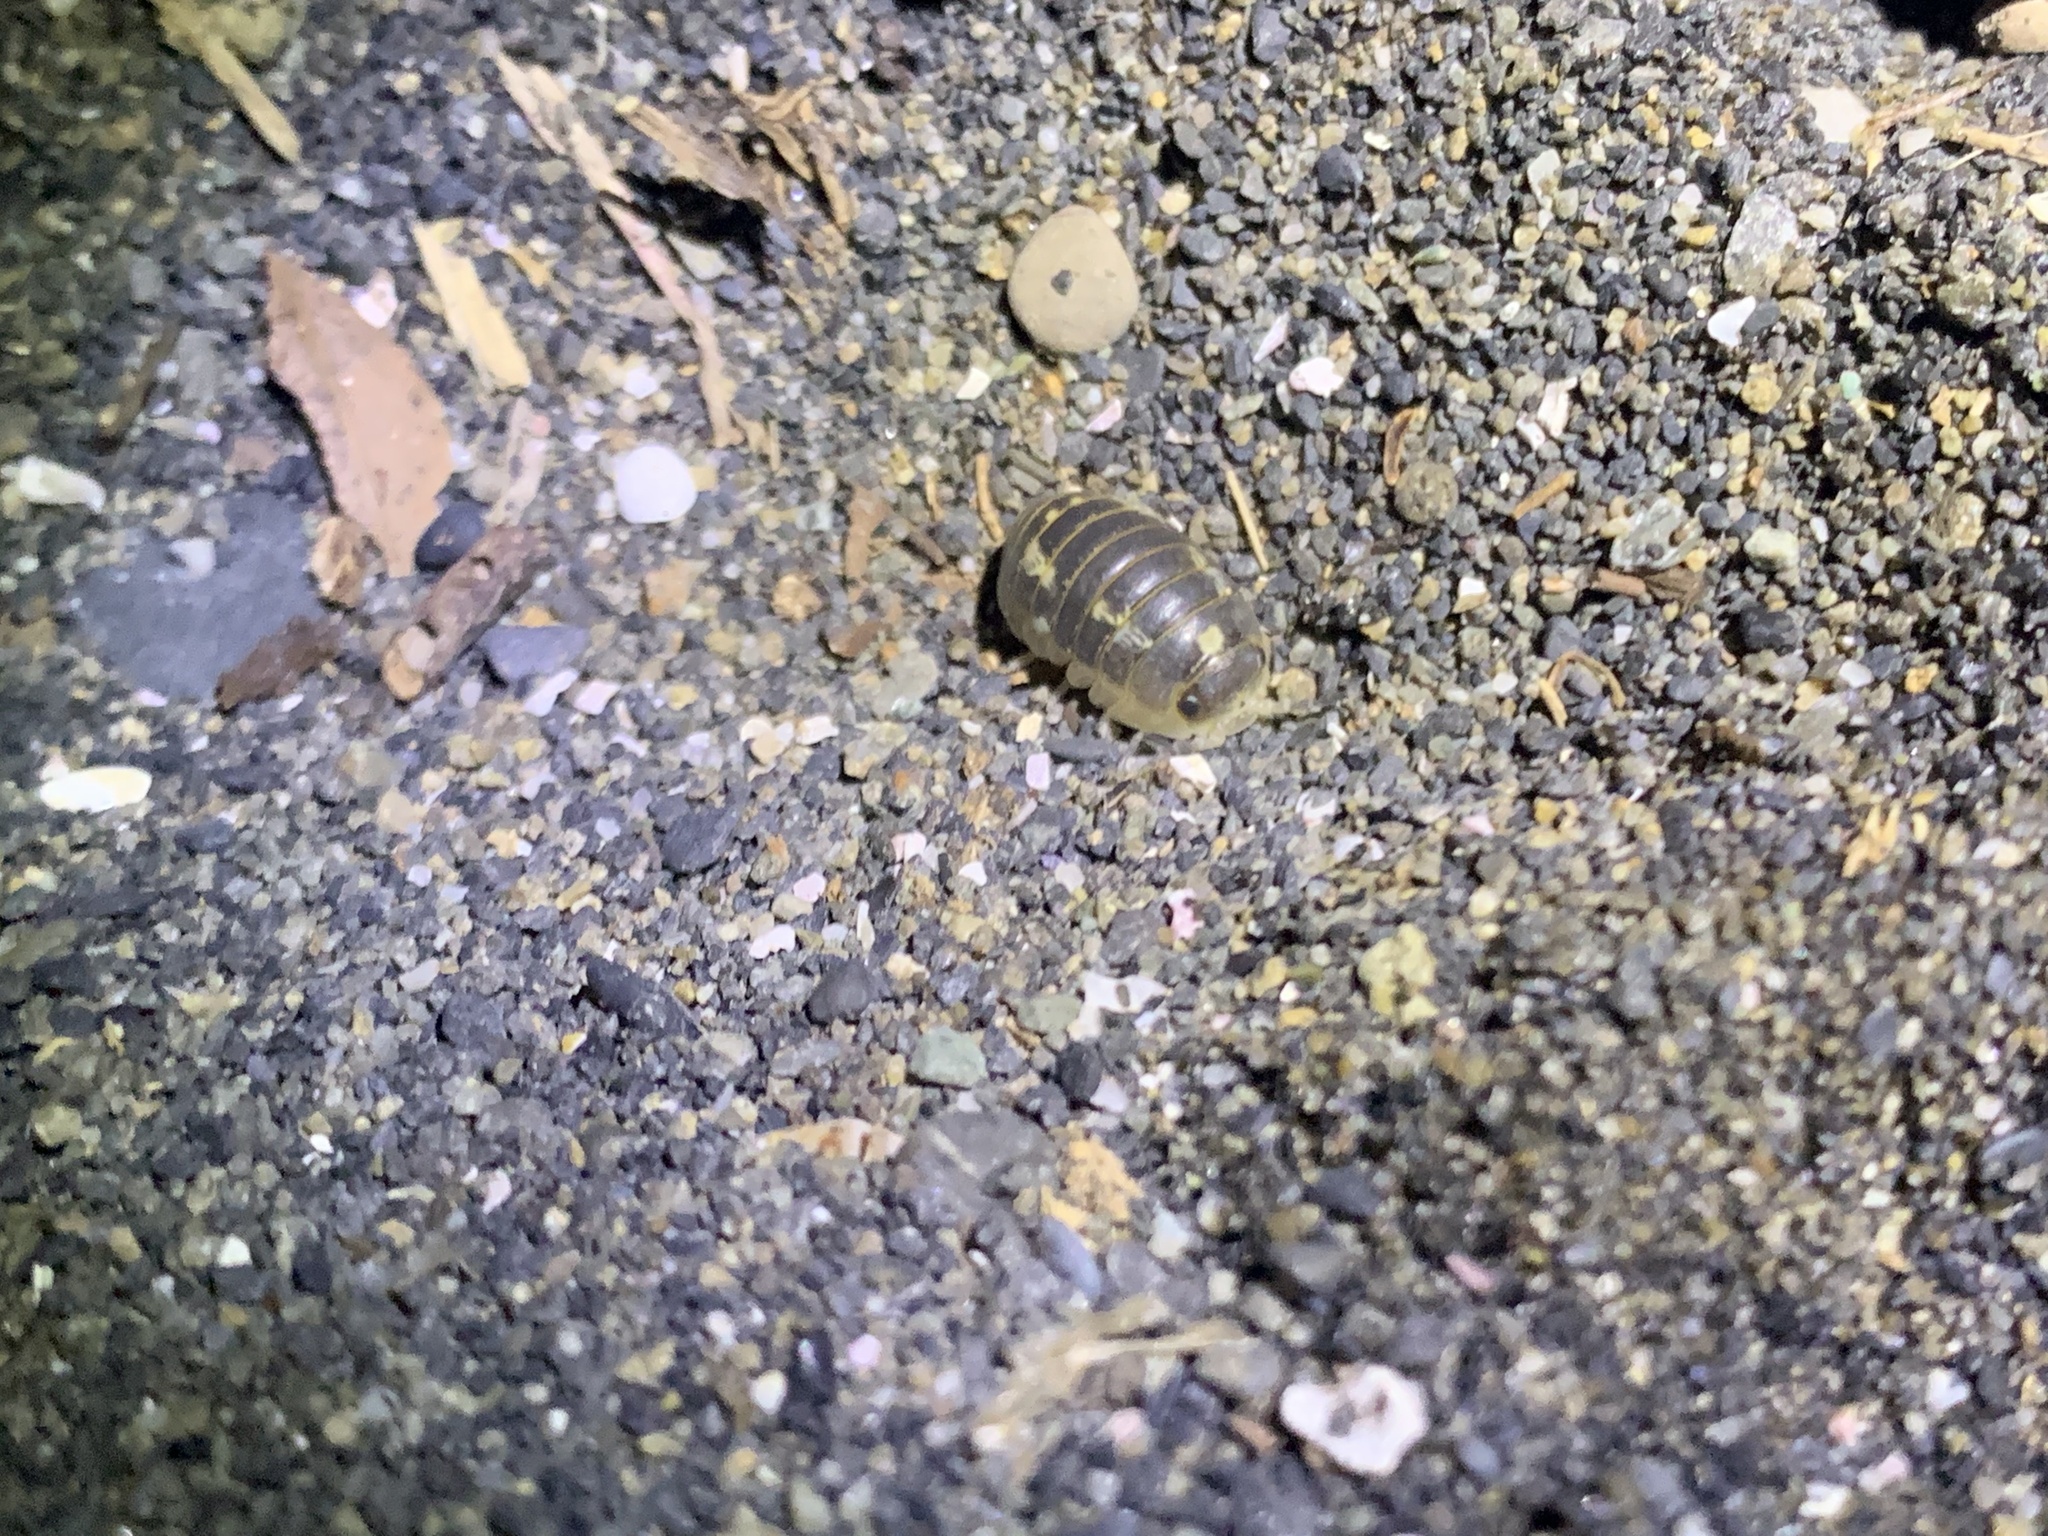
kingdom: Animalia
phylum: Arthropoda
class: Malacostraca
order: Isopoda
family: Tylidae
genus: Tylos
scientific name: Tylos granuliferus
